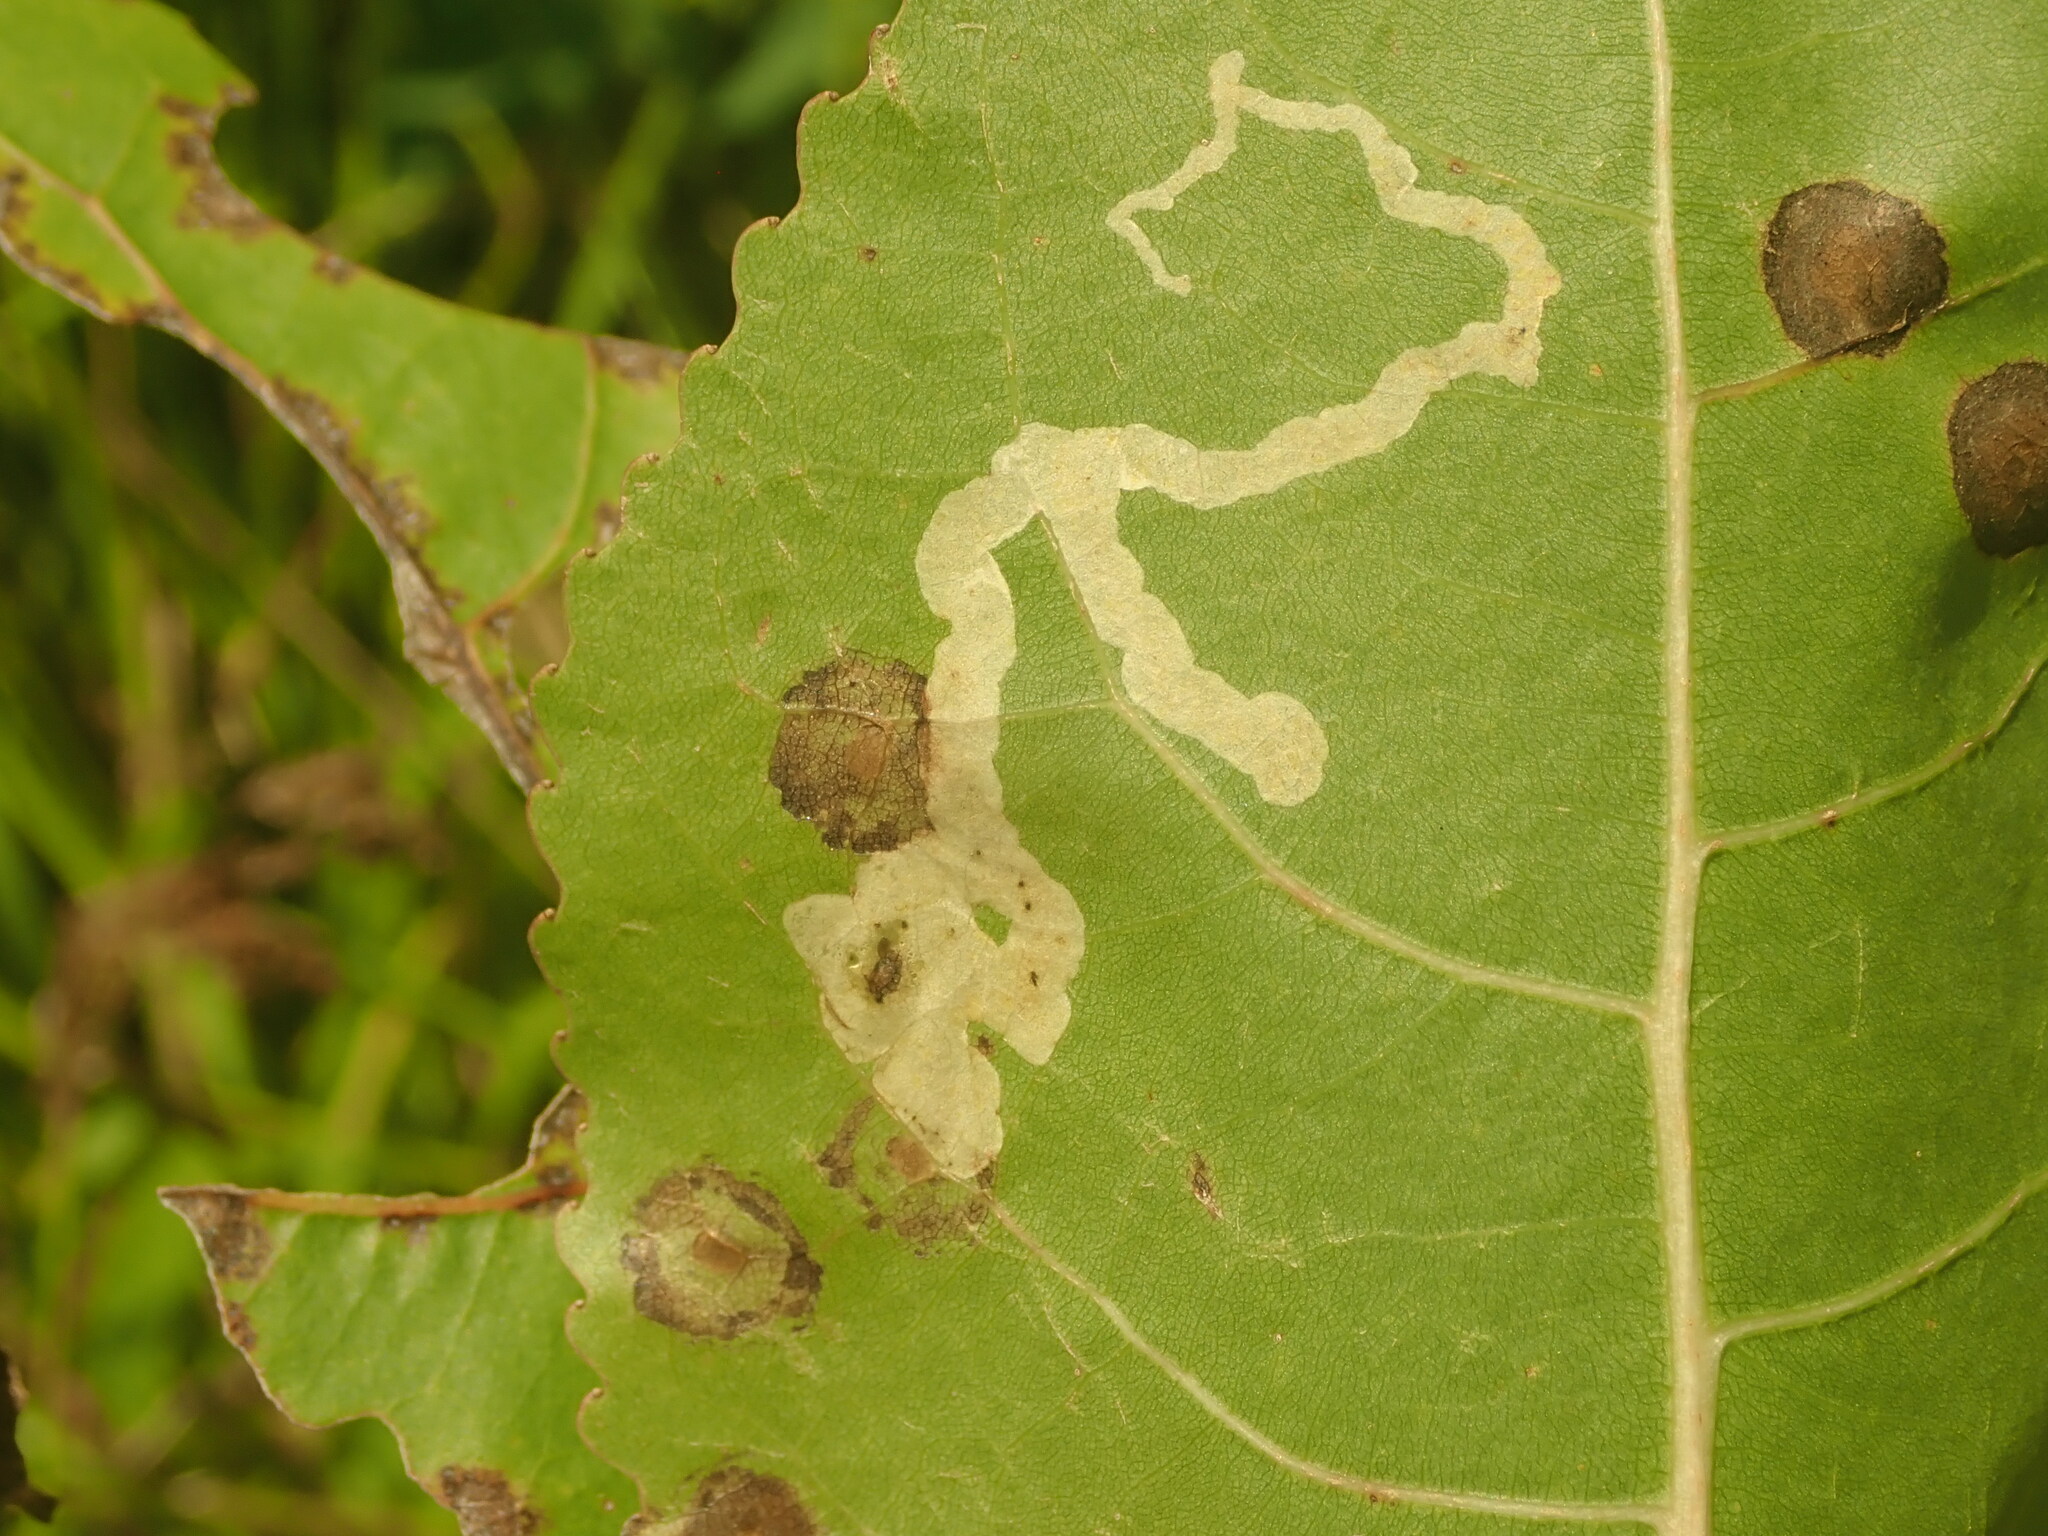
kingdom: Animalia
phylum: Arthropoda
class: Insecta
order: Diptera
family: Agromyzidae
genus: Aulagromyza
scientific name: Aulagromyza populicola
